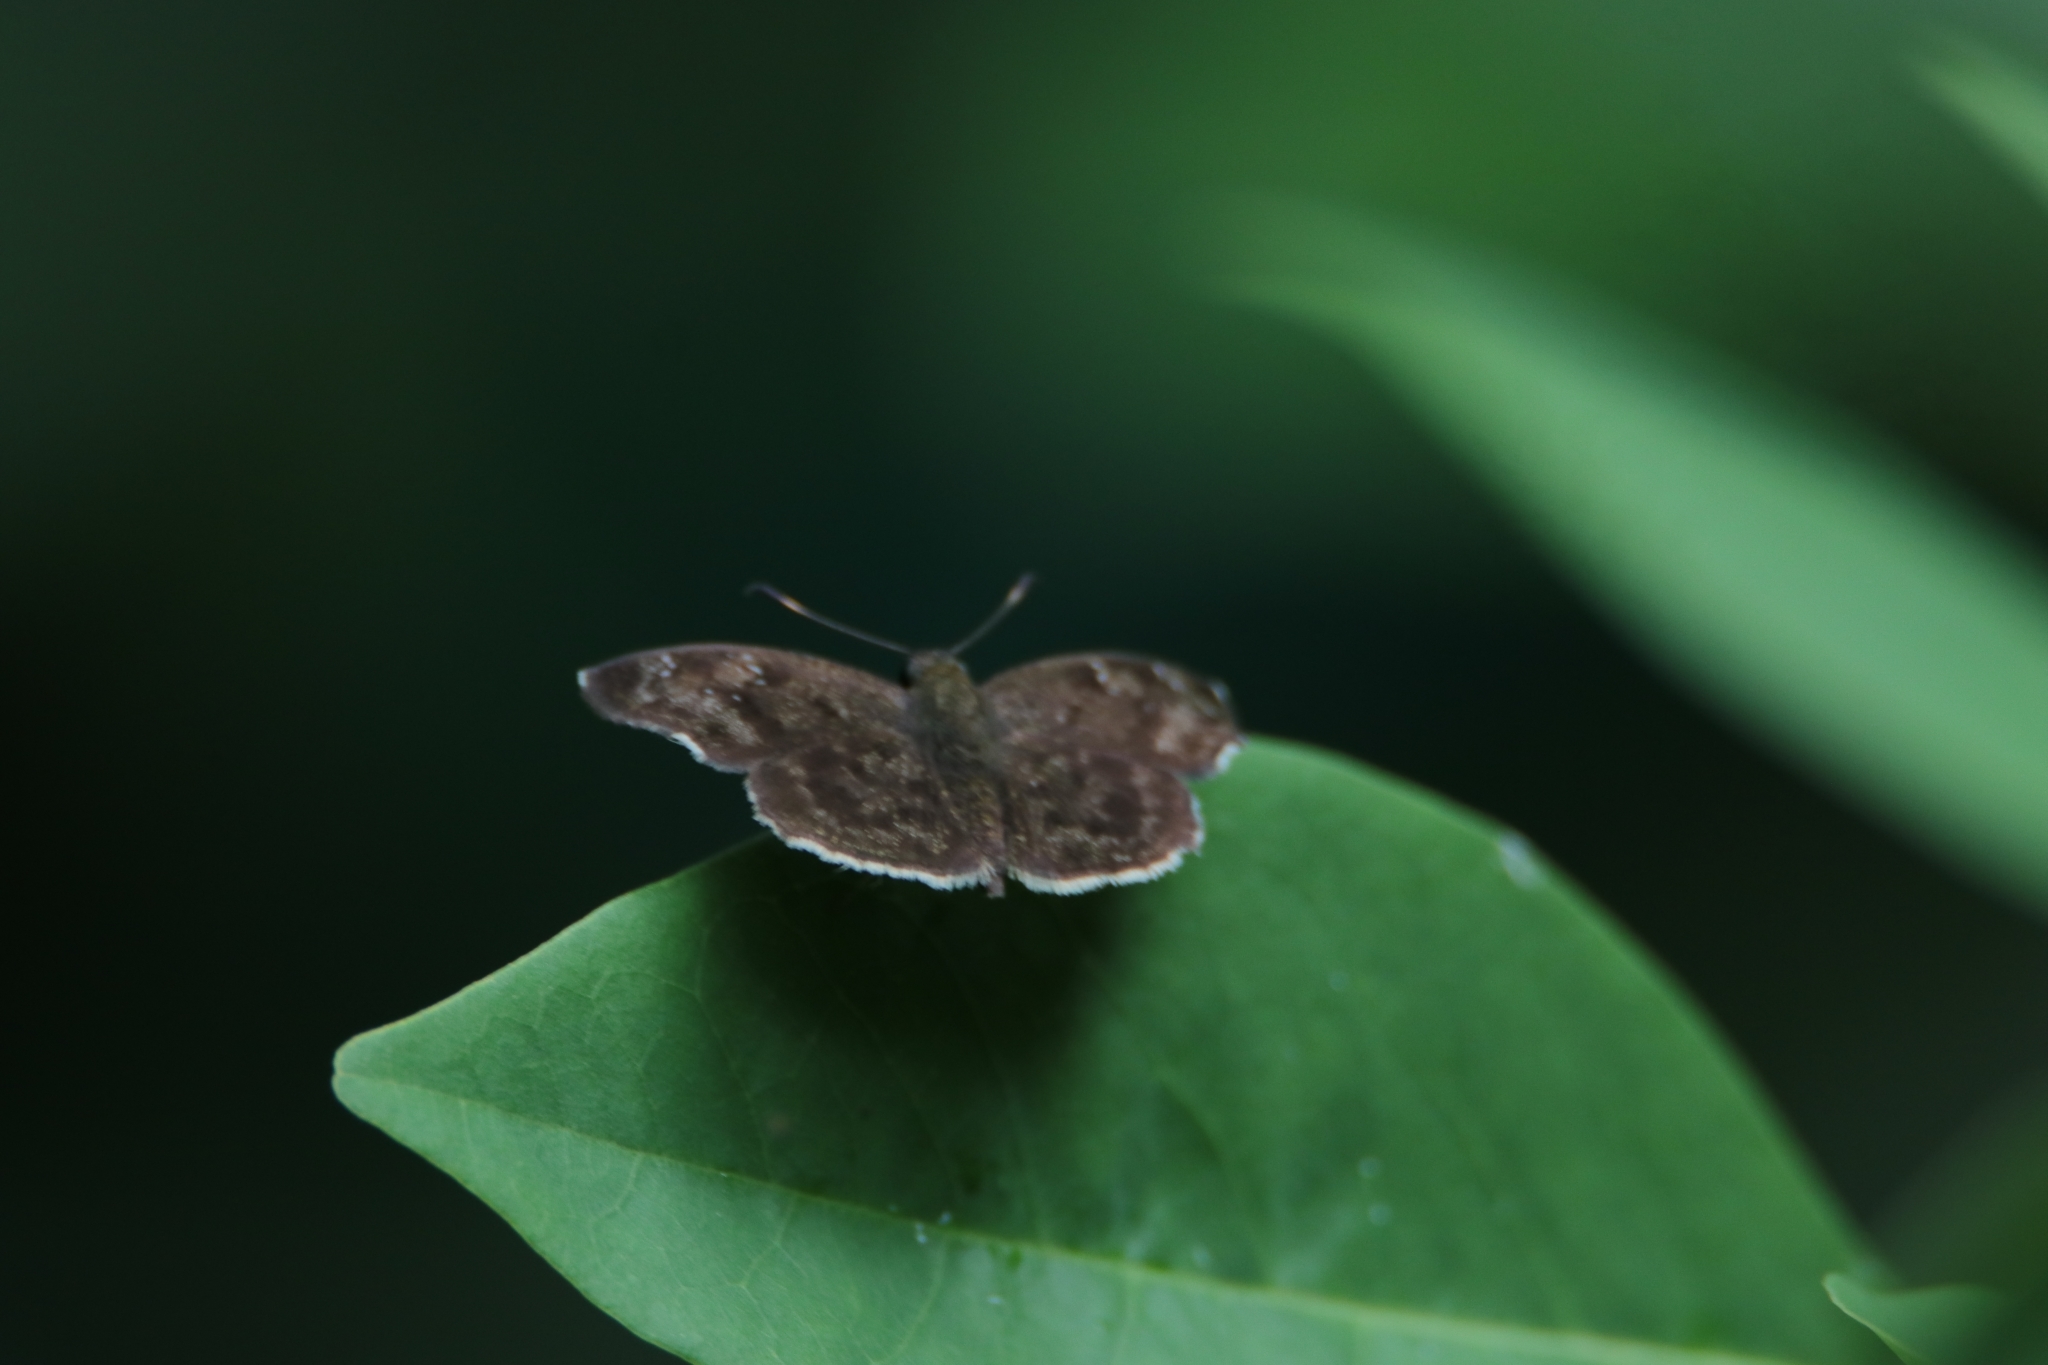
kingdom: Animalia
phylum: Arthropoda
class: Insecta
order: Lepidoptera
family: Hesperiidae
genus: Sarangesa
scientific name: Sarangesa dasahara
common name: Common small flat
